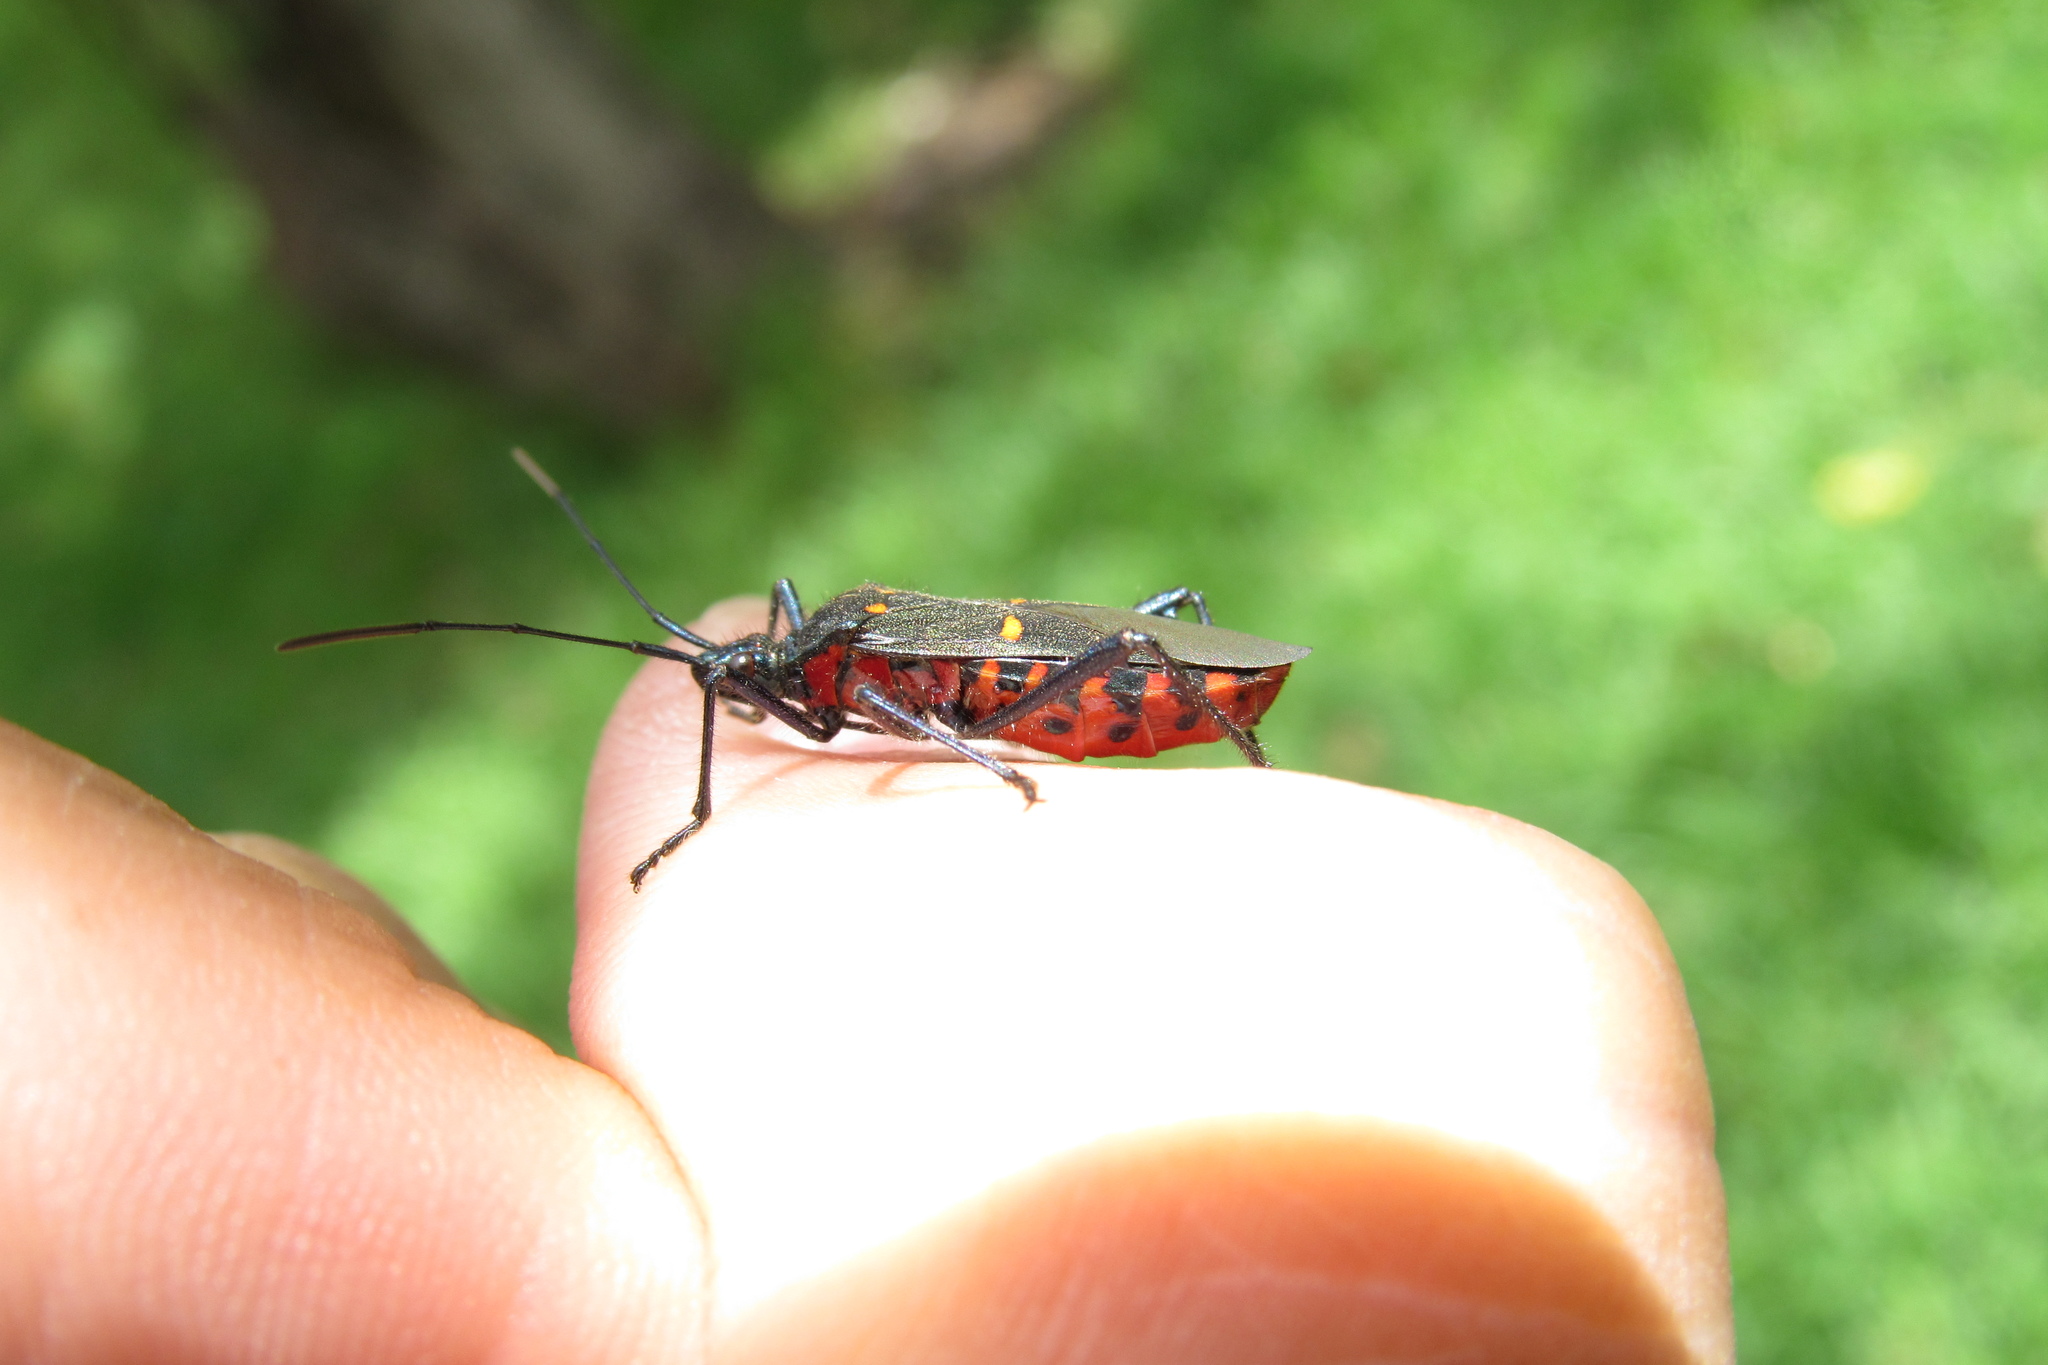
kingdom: Animalia
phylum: Arthropoda
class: Insecta
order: Hemiptera
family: Coreidae
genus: Leptoglossus
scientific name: Leptoglossus fasciolatus
